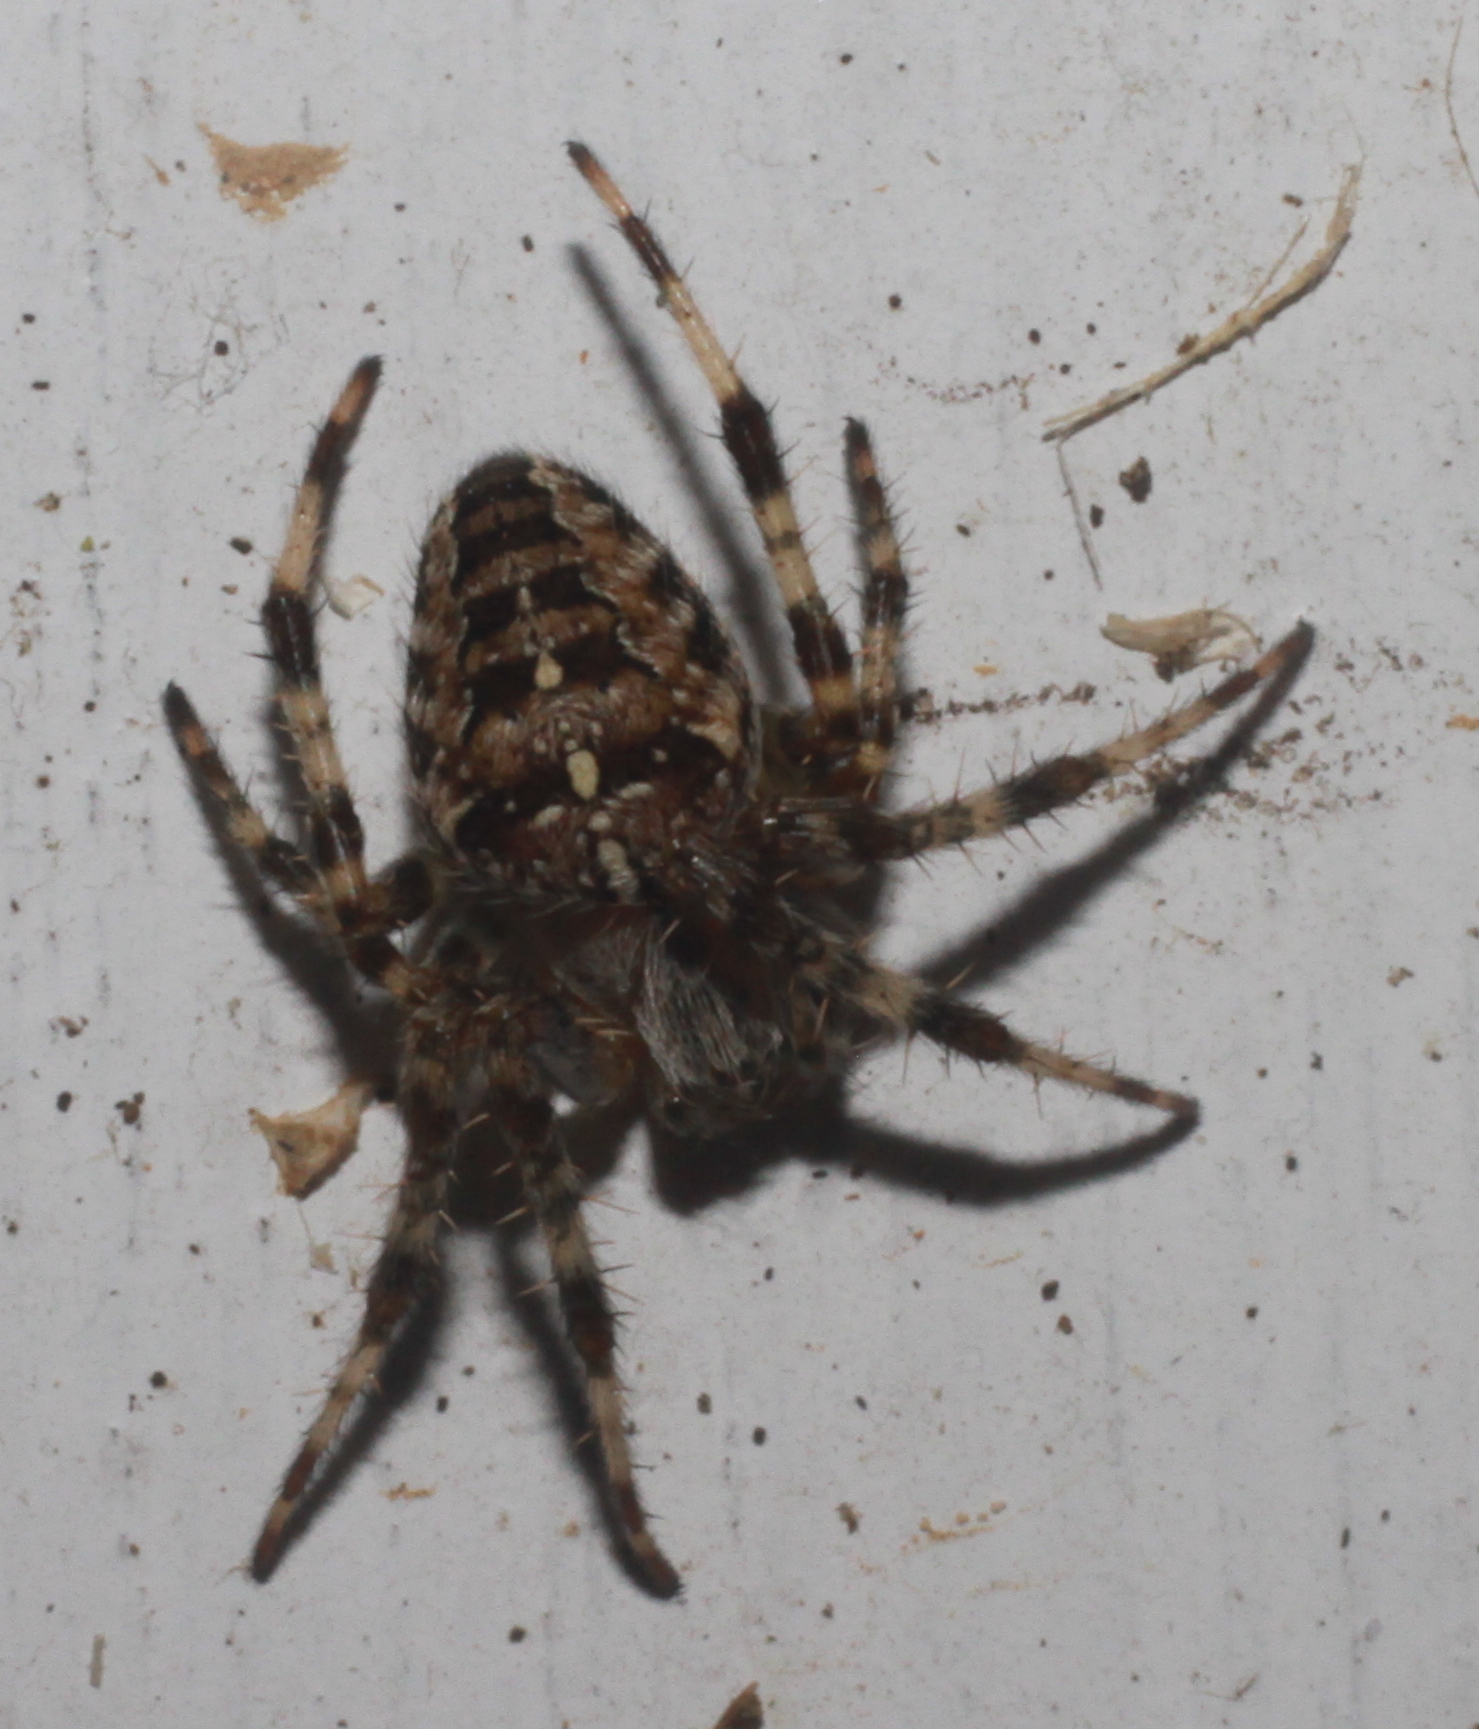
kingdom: Animalia
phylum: Arthropoda
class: Arachnida
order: Araneae
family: Araneidae
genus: Araneus
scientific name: Araneus diadematus
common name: Cross orbweaver
